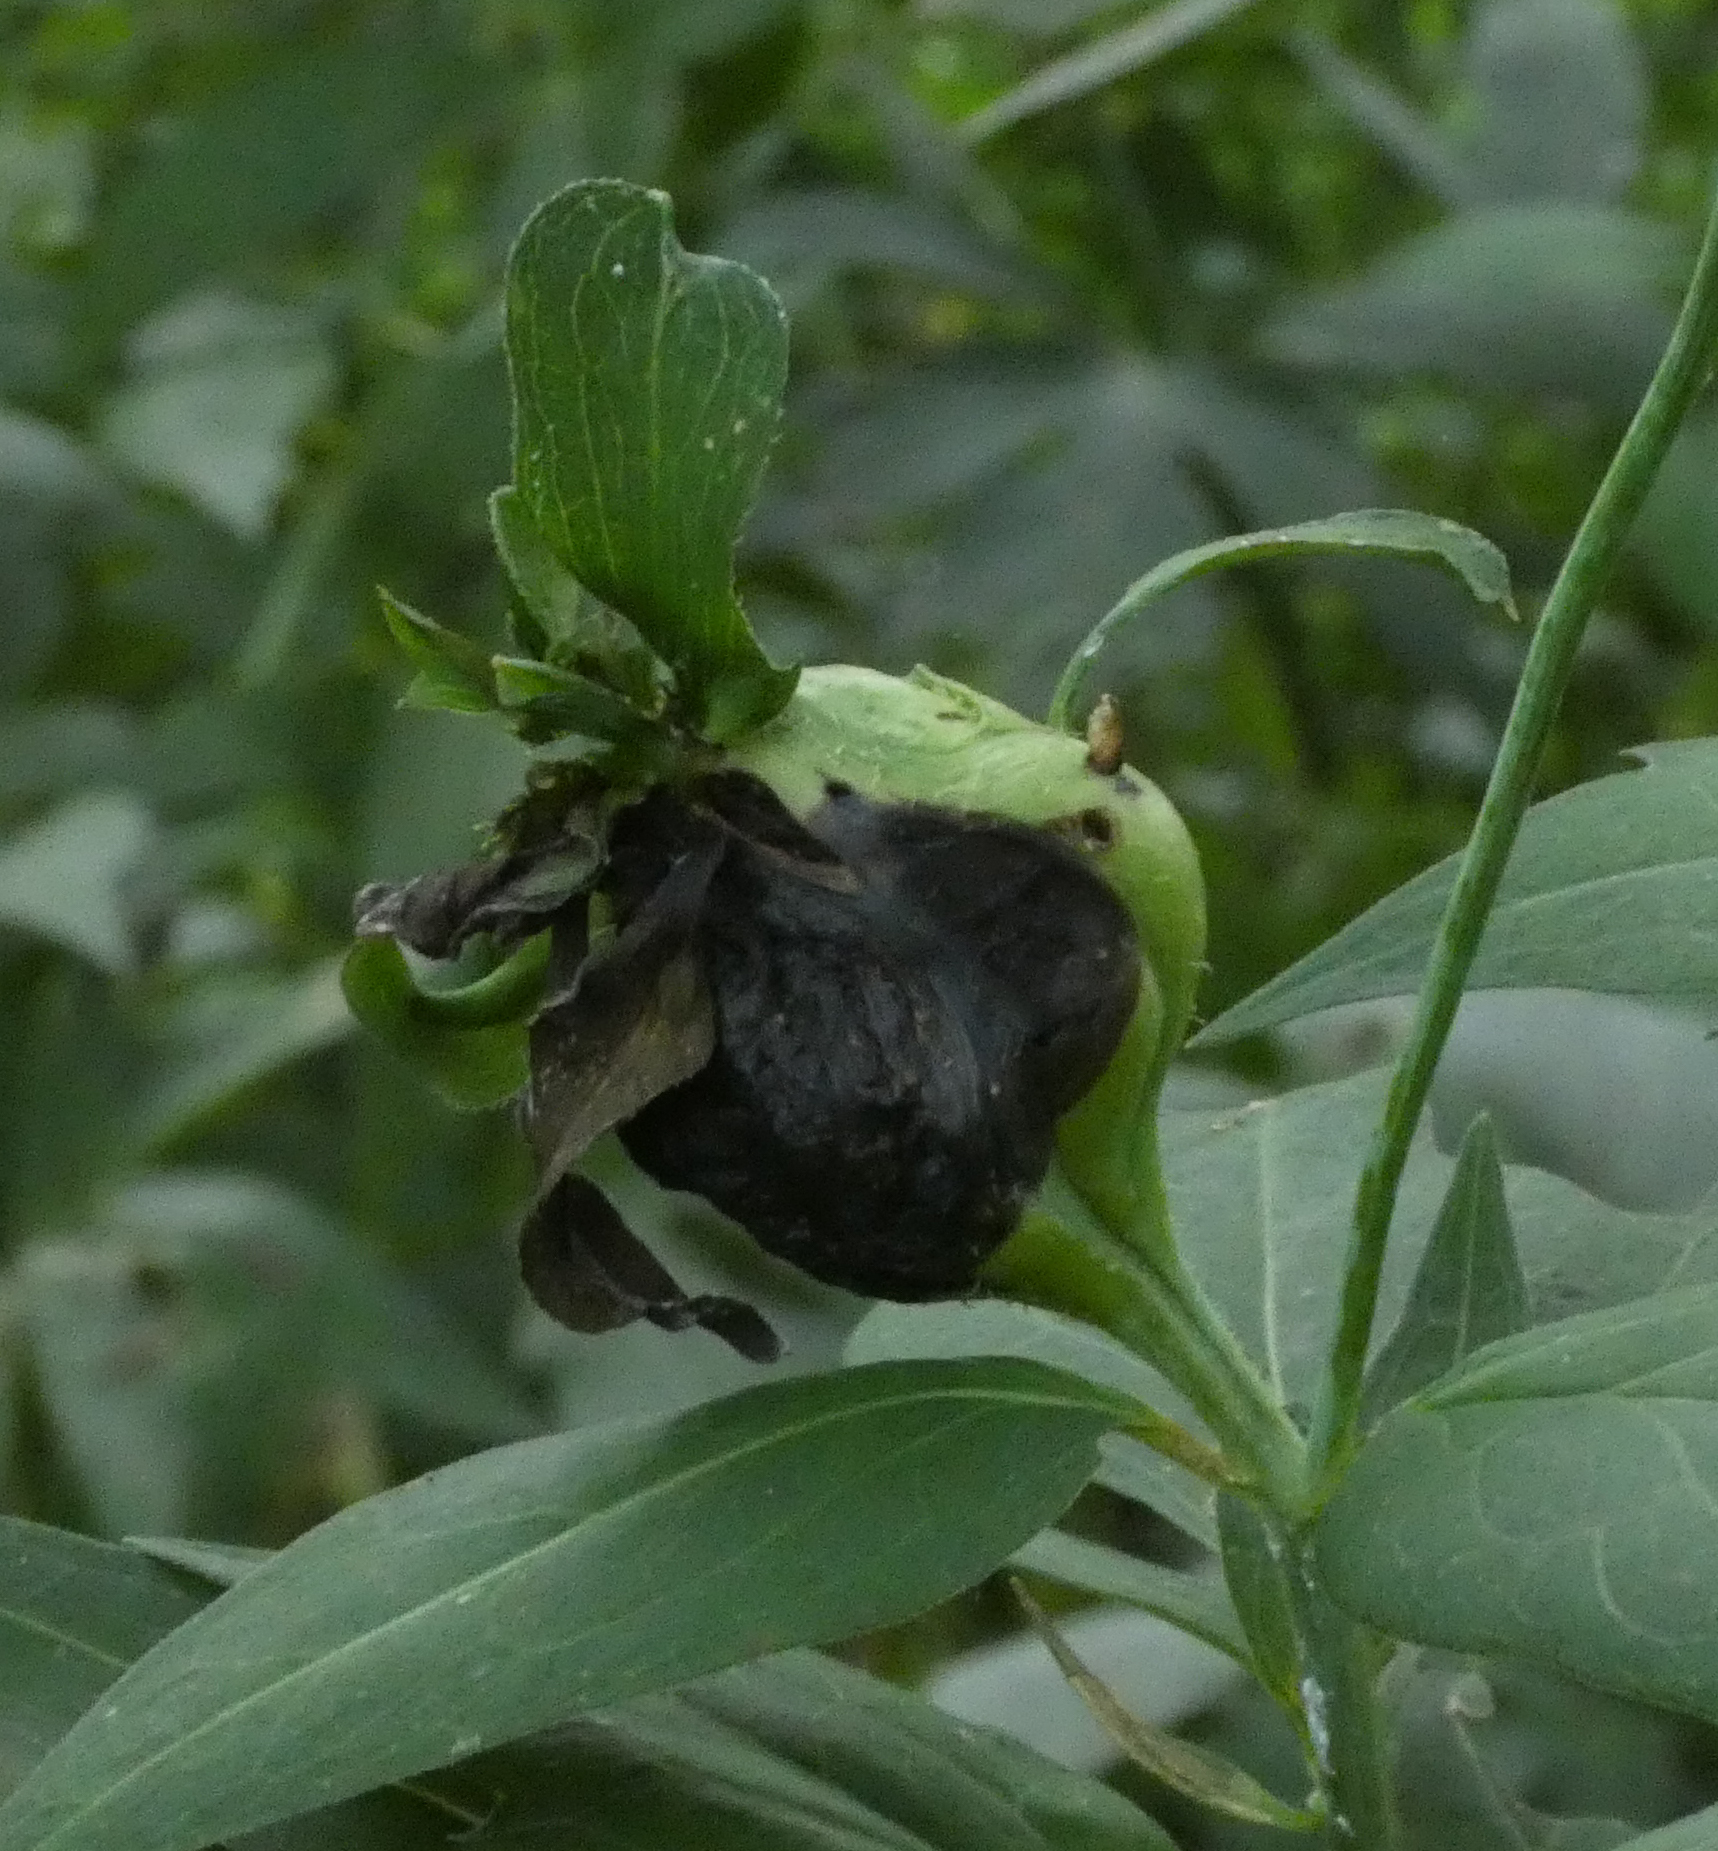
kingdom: Animalia
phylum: Arthropoda
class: Insecta
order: Diptera
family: Cecidomyiidae
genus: Asphondylia
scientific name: Asphondylia rudbeckiaeconspicua
